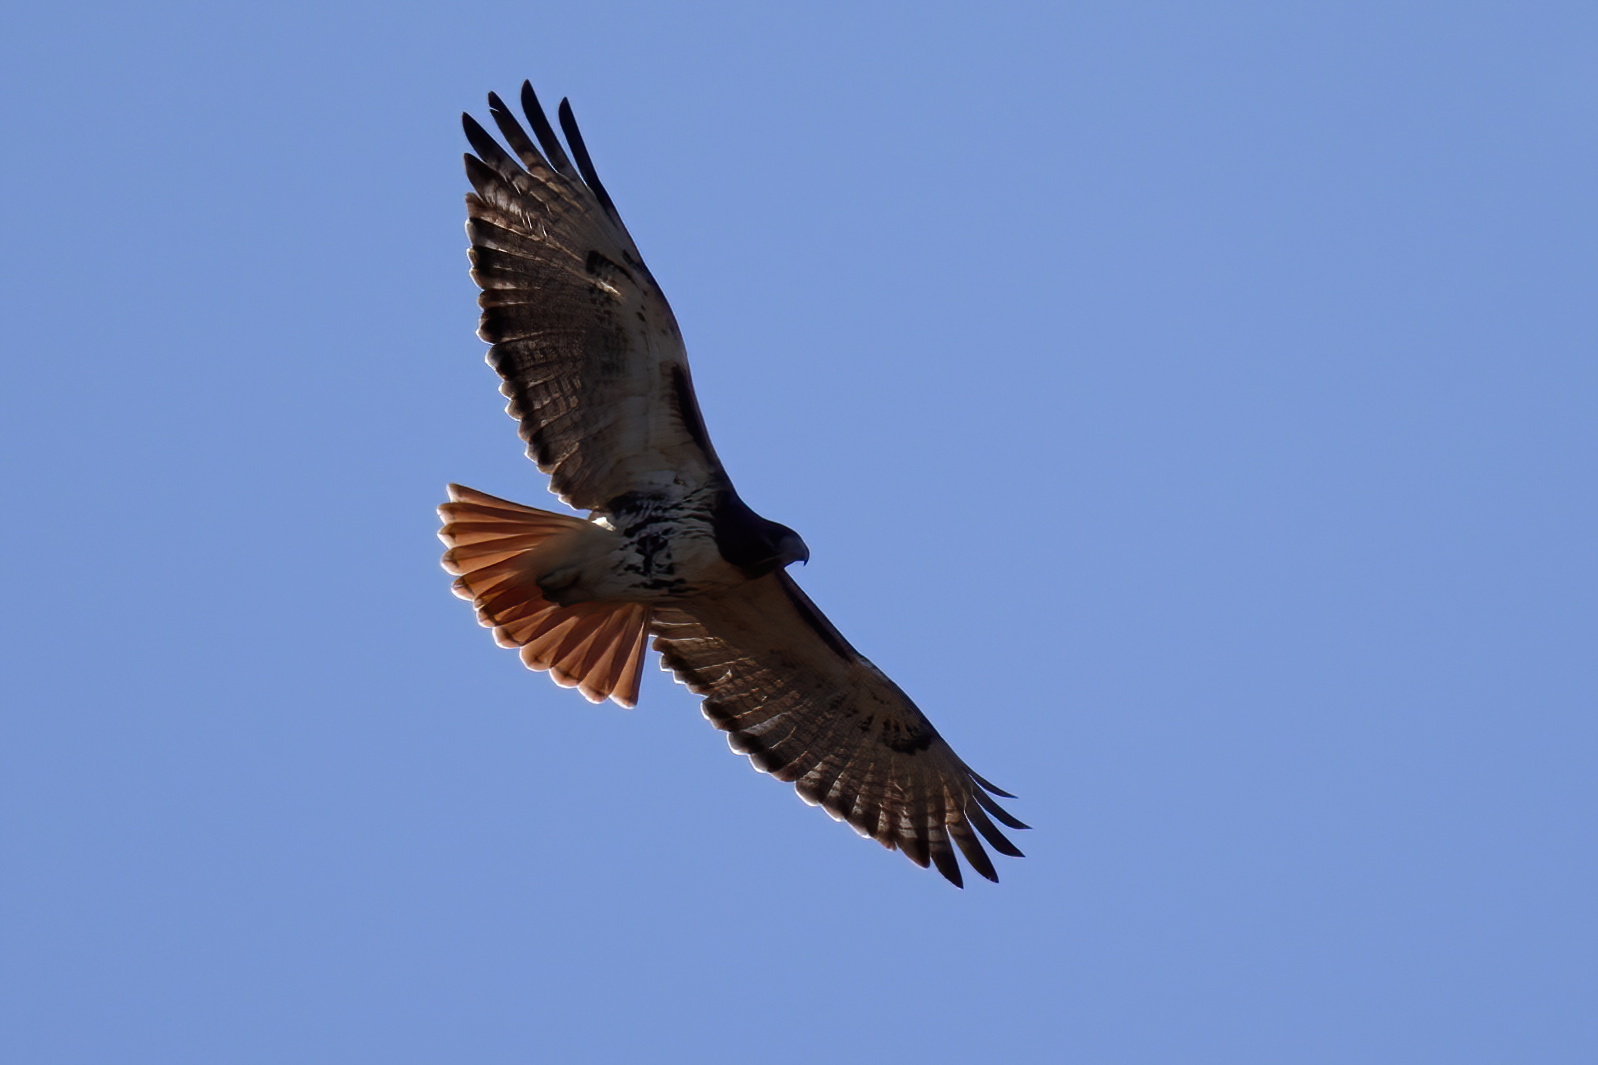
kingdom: Animalia
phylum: Chordata
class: Aves
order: Accipitriformes
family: Accipitridae
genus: Buteo
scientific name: Buteo jamaicensis
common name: Red-tailed hawk
